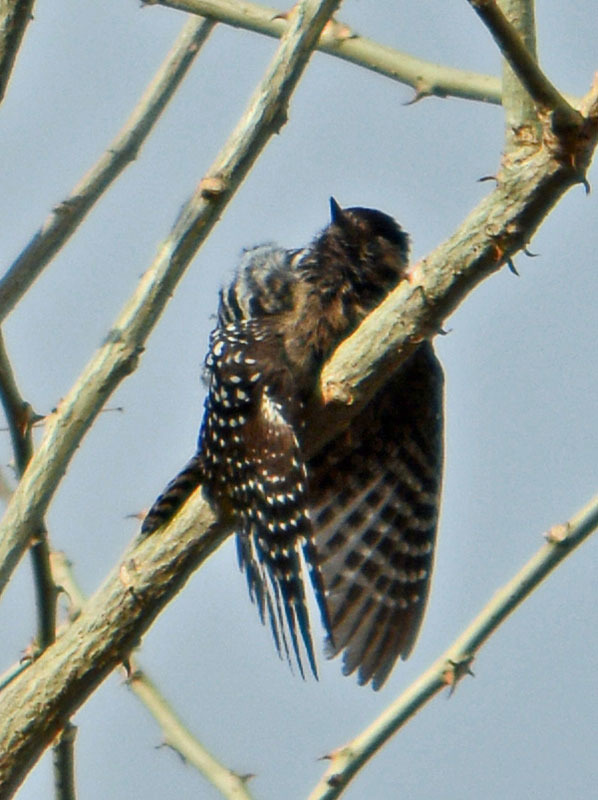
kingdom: Animalia
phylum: Chordata
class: Aves
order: Piciformes
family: Picidae
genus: Dryobates
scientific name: Dryobates scalaris
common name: Ladder-backed woodpecker
